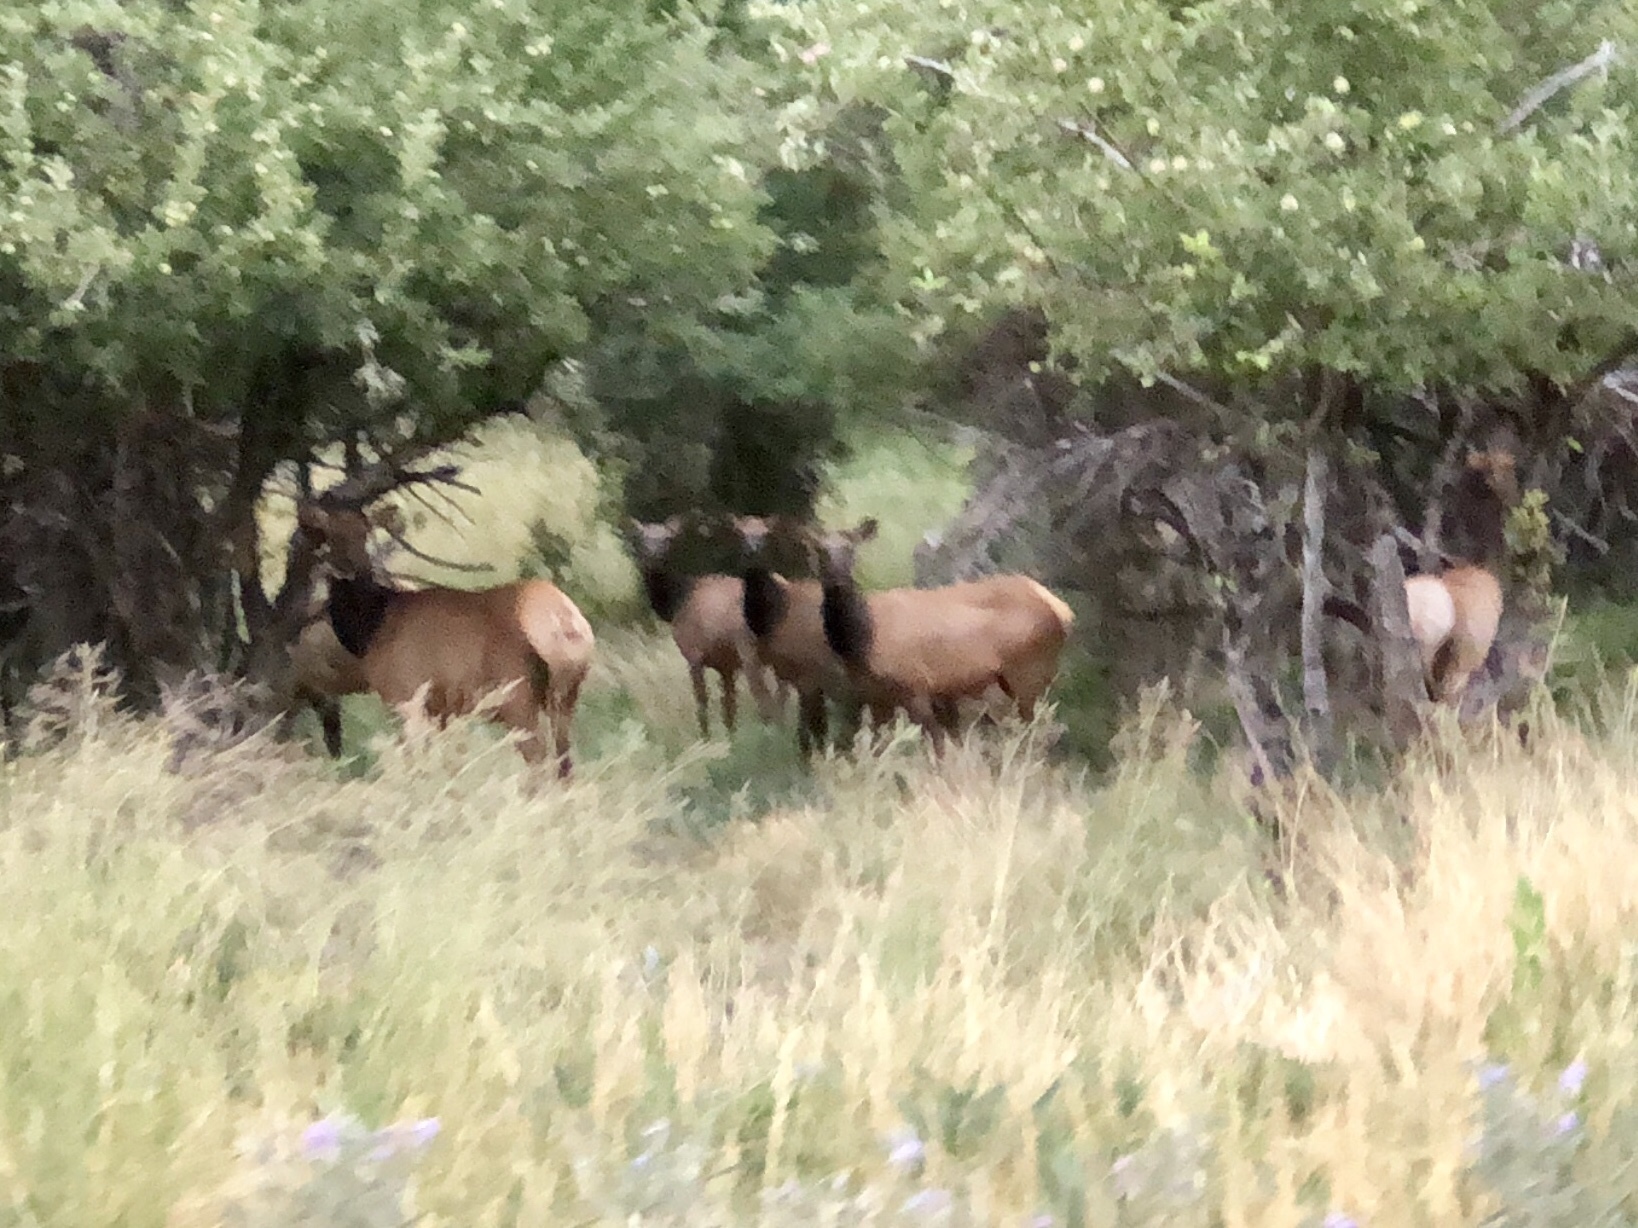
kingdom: Animalia
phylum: Chordata
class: Mammalia
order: Artiodactyla
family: Cervidae
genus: Cervus
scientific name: Cervus elaphus
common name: Red deer
